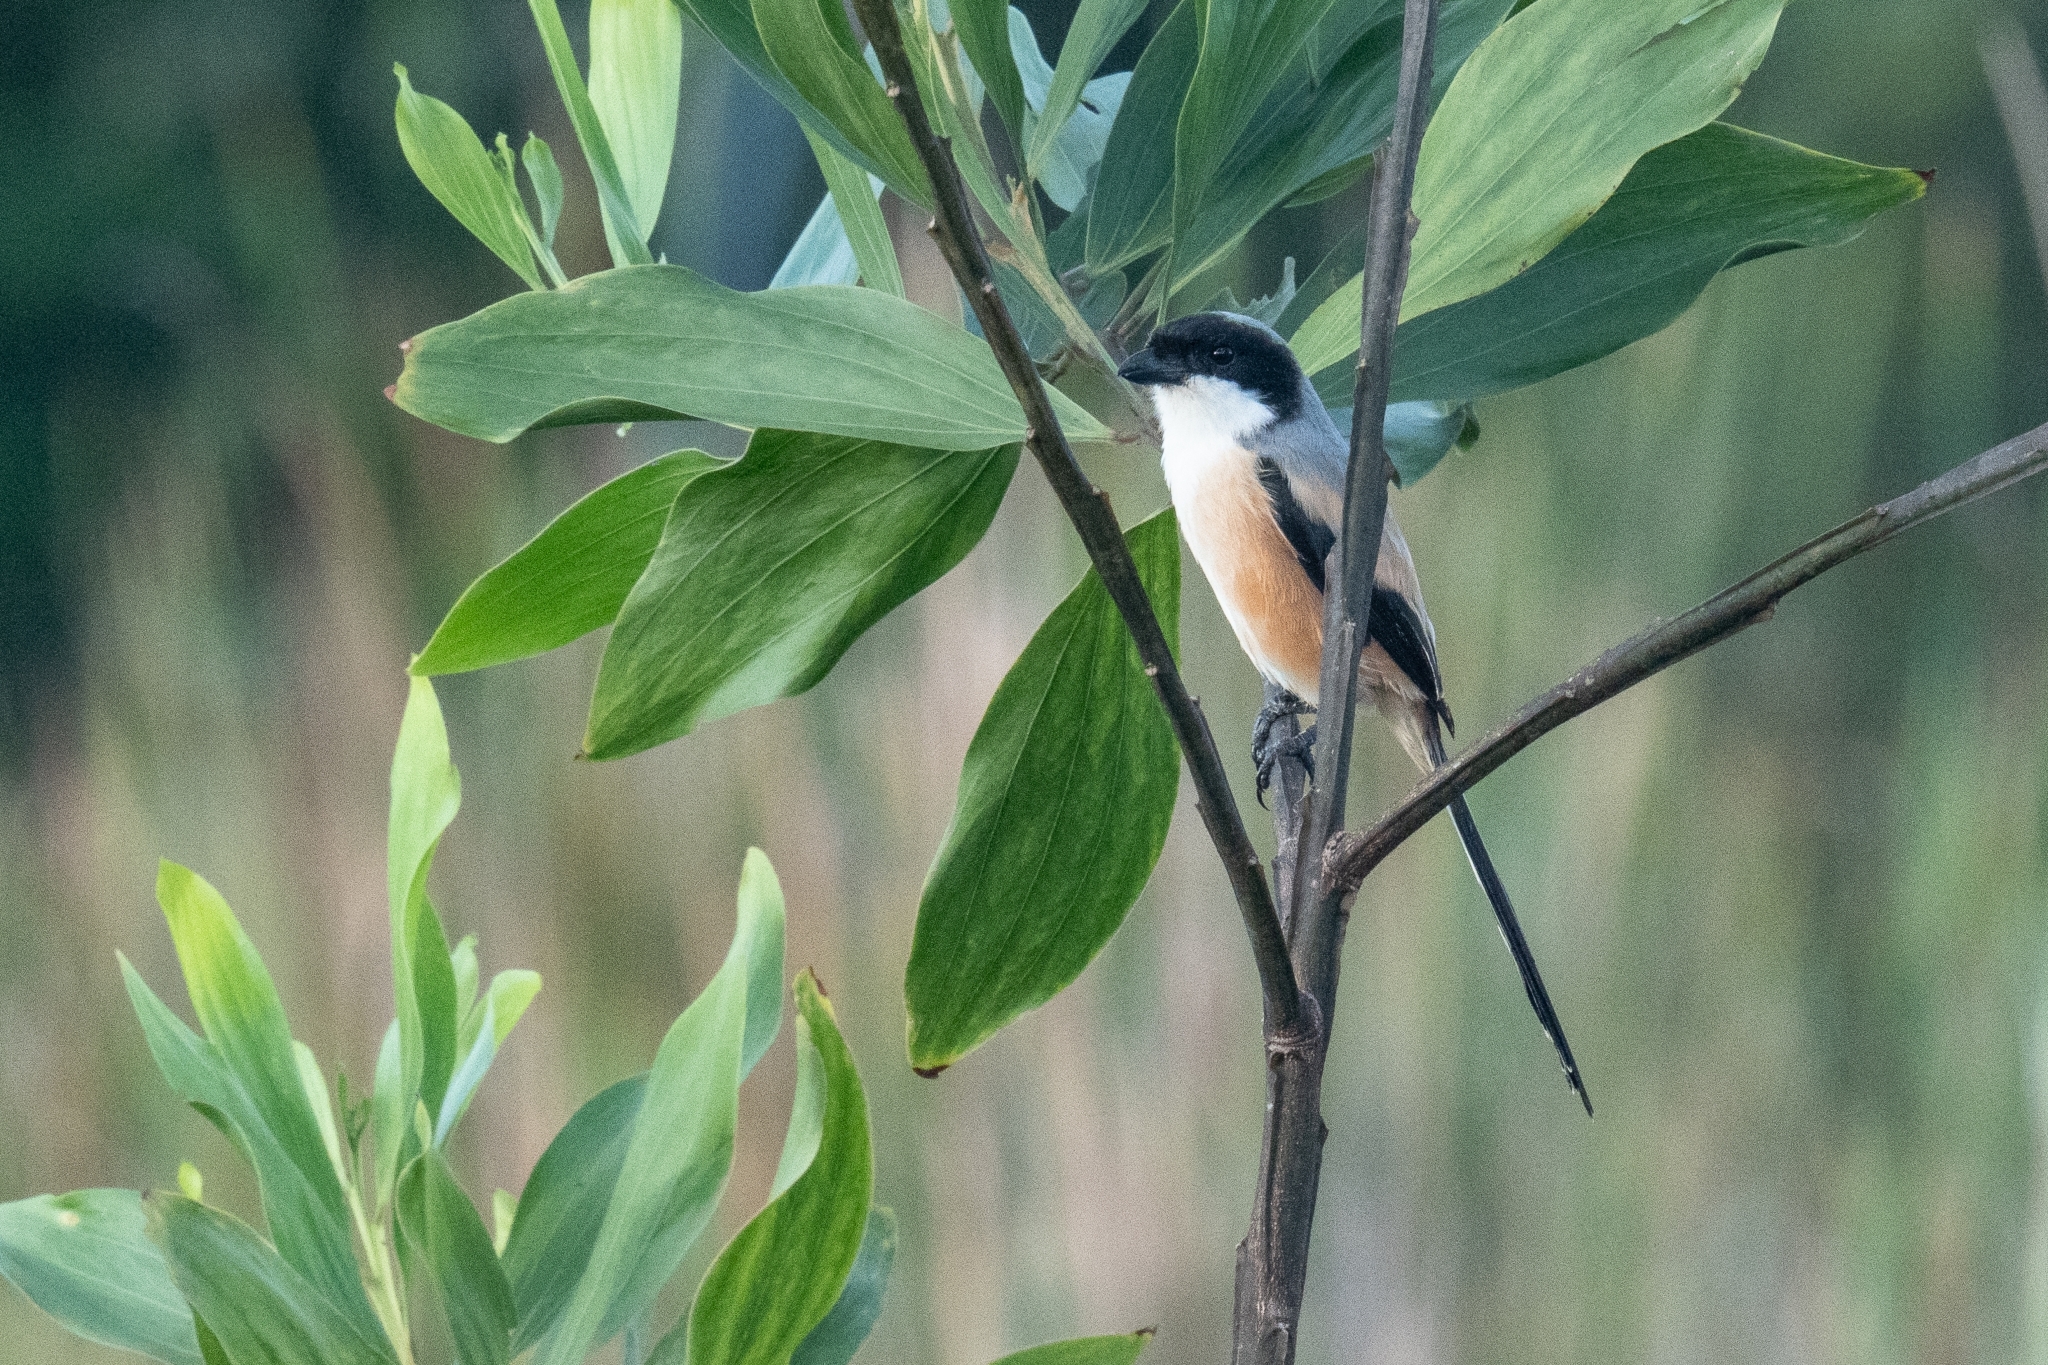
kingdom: Animalia
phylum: Chordata
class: Aves
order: Passeriformes
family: Laniidae
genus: Lanius
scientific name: Lanius schach
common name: Long-tailed shrike
